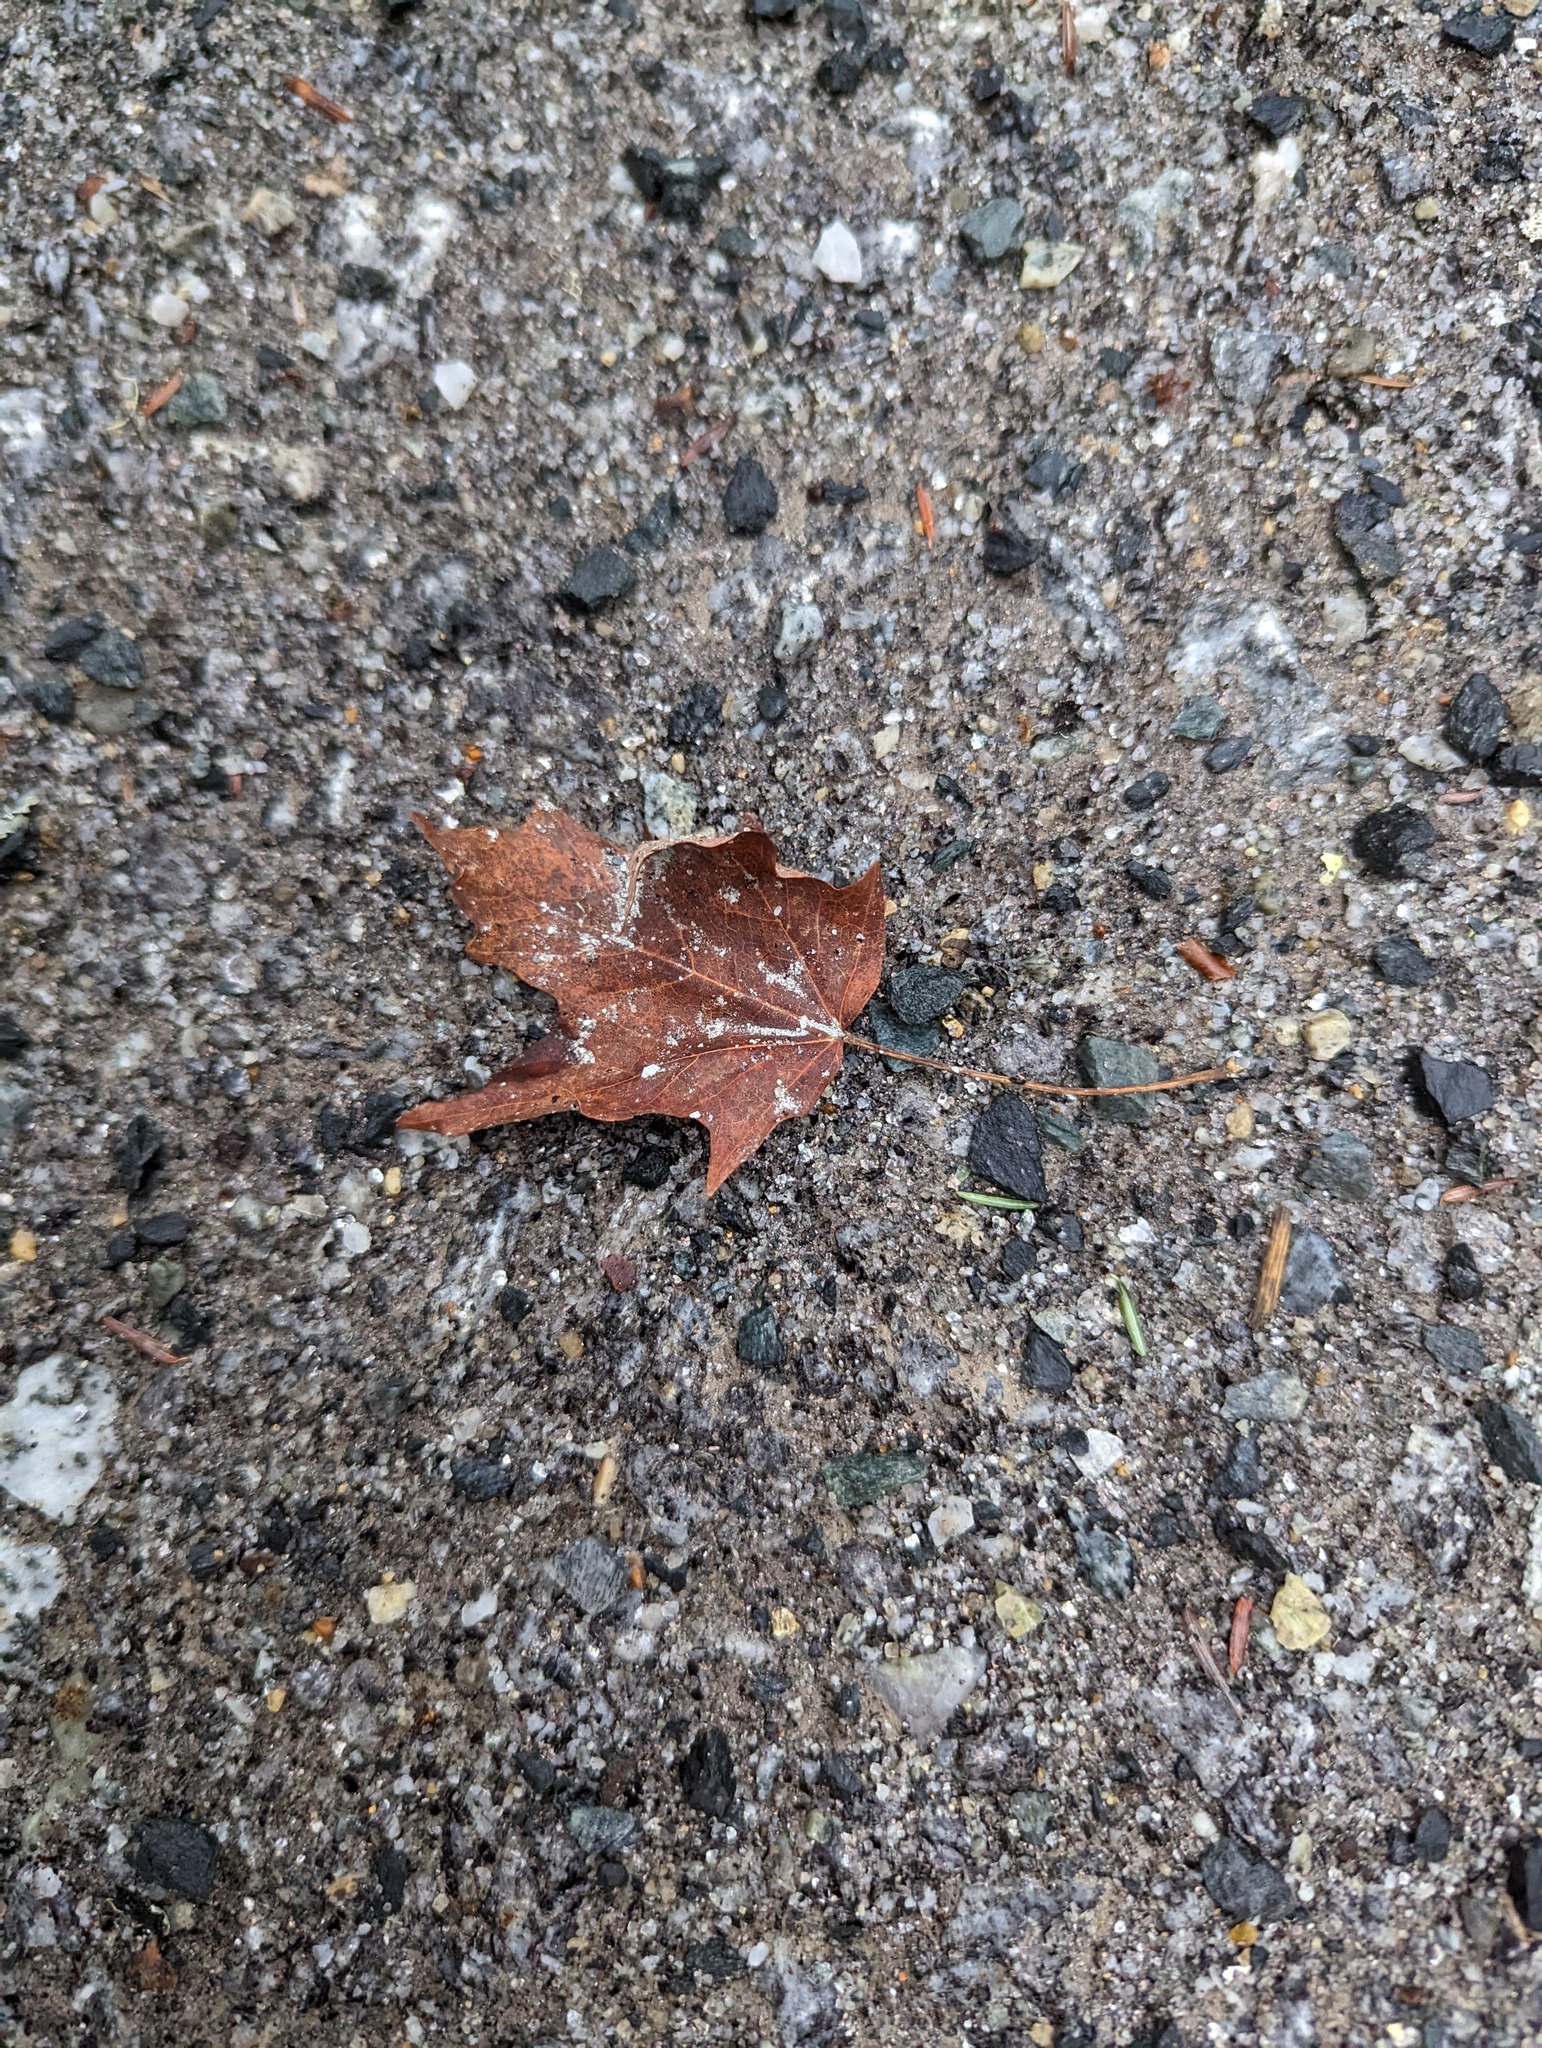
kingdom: Plantae
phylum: Tracheophyta
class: Magnoliopsida
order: Sapindales
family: Sapindaceae
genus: Acer
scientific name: Acer saccharum
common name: Sugar maple
